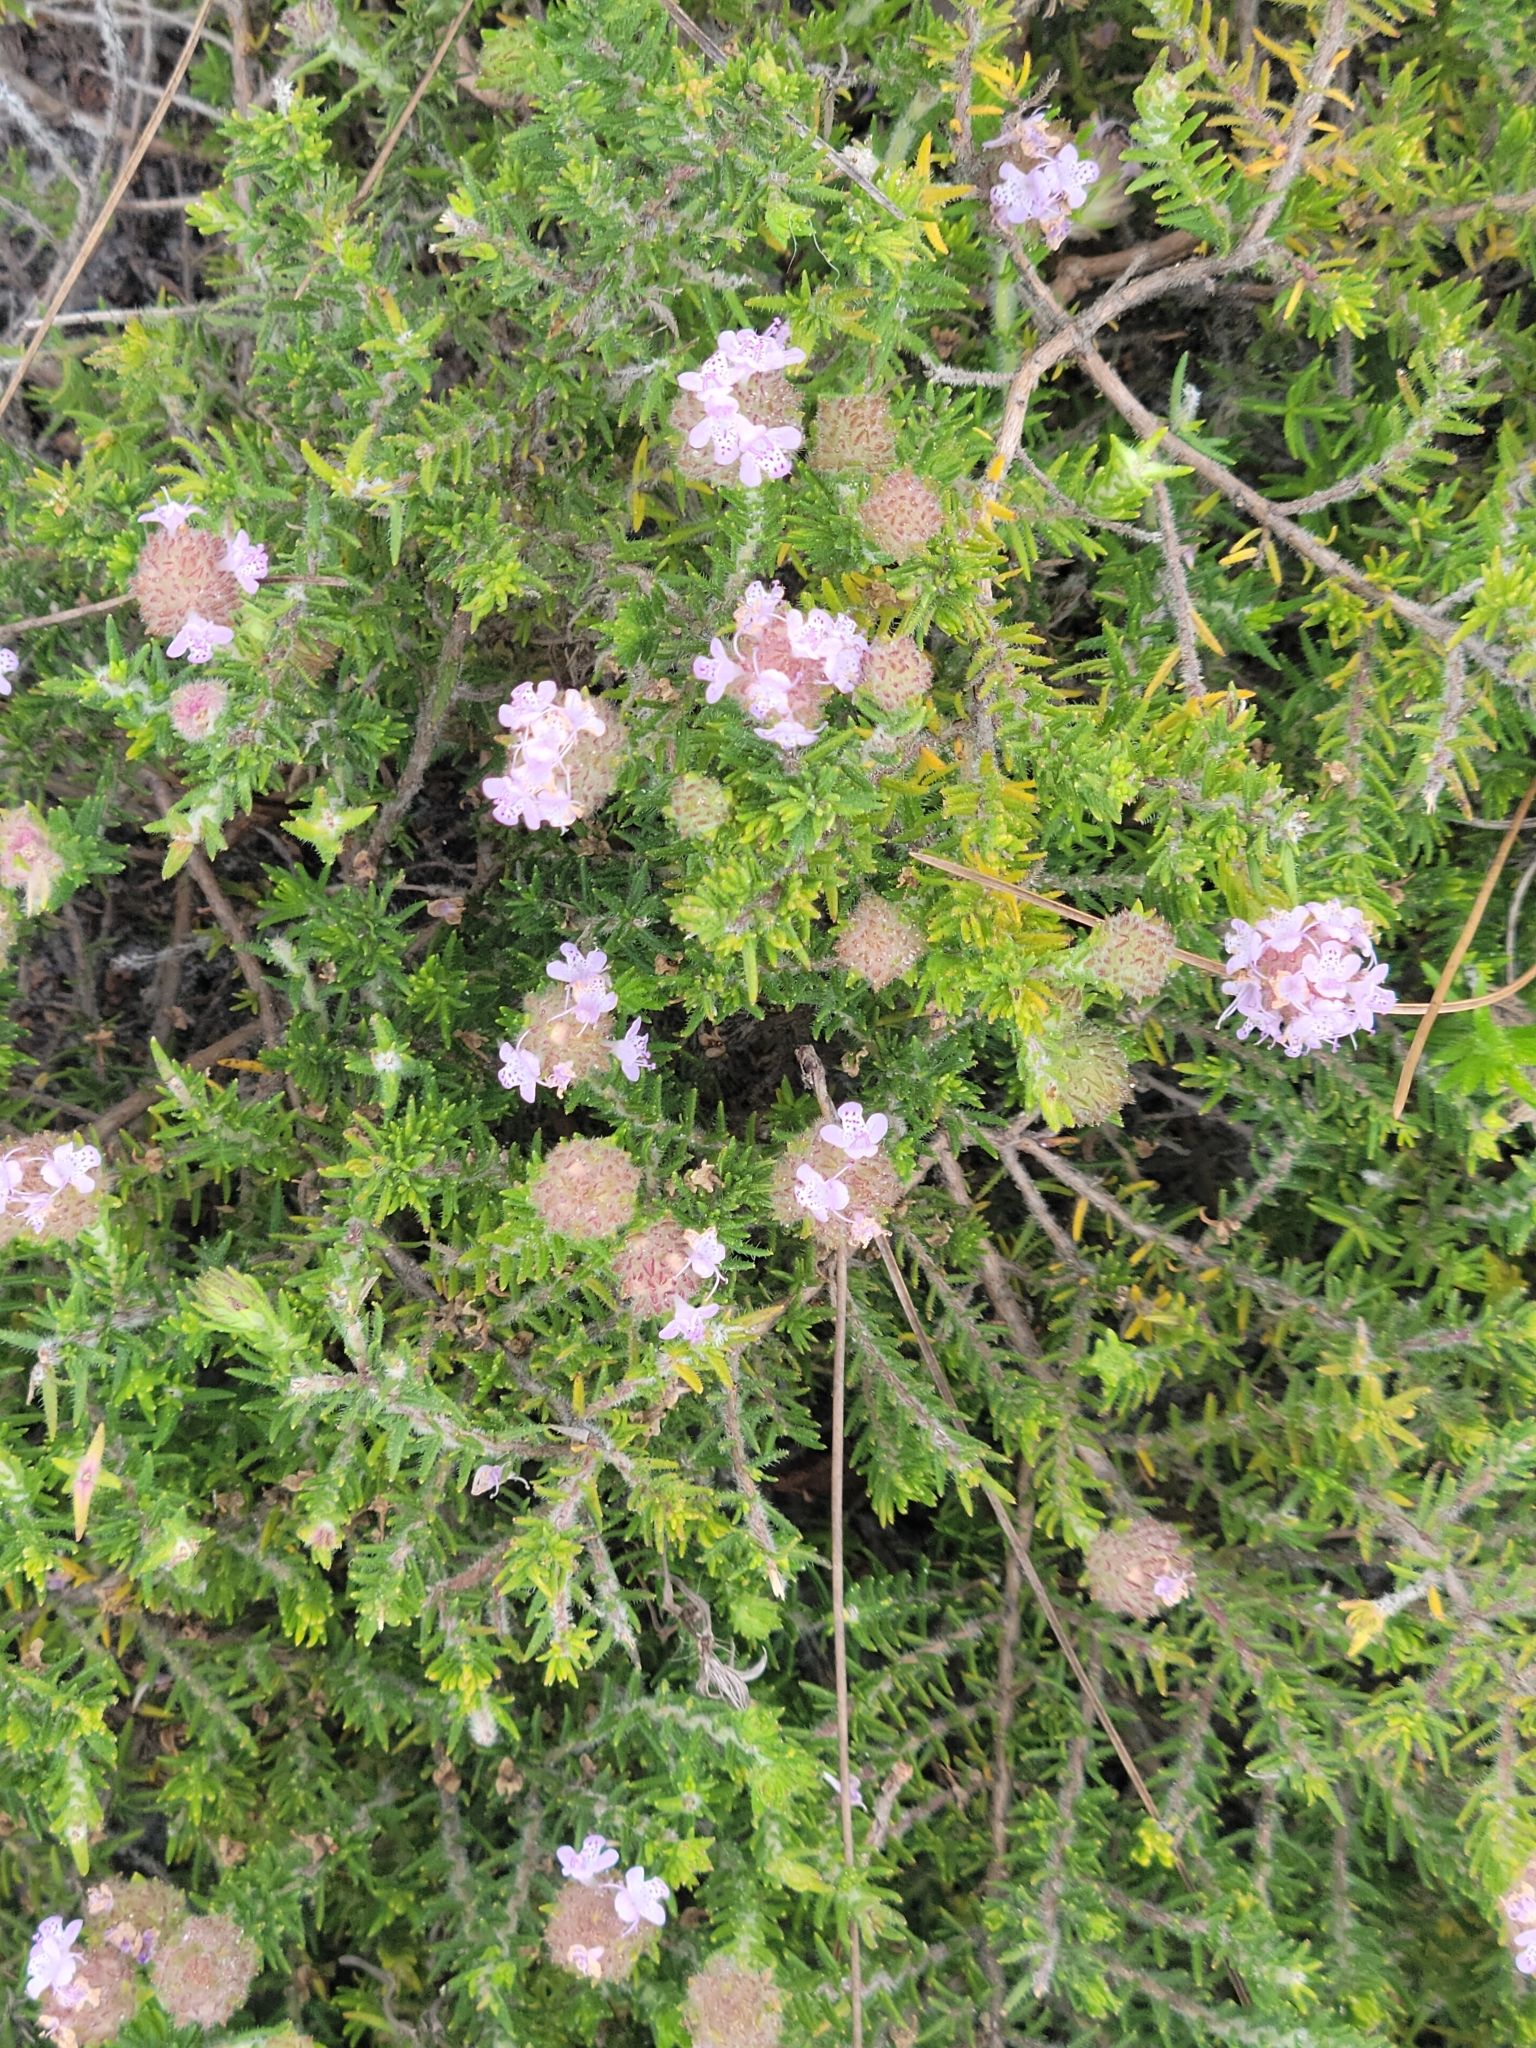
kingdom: Plantae
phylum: Tracheophyta
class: Magnoliopsida
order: Lamiales
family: Lamiaceae
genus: Piloblephis
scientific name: Piloblephis rigida
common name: Wild pennyroyal
